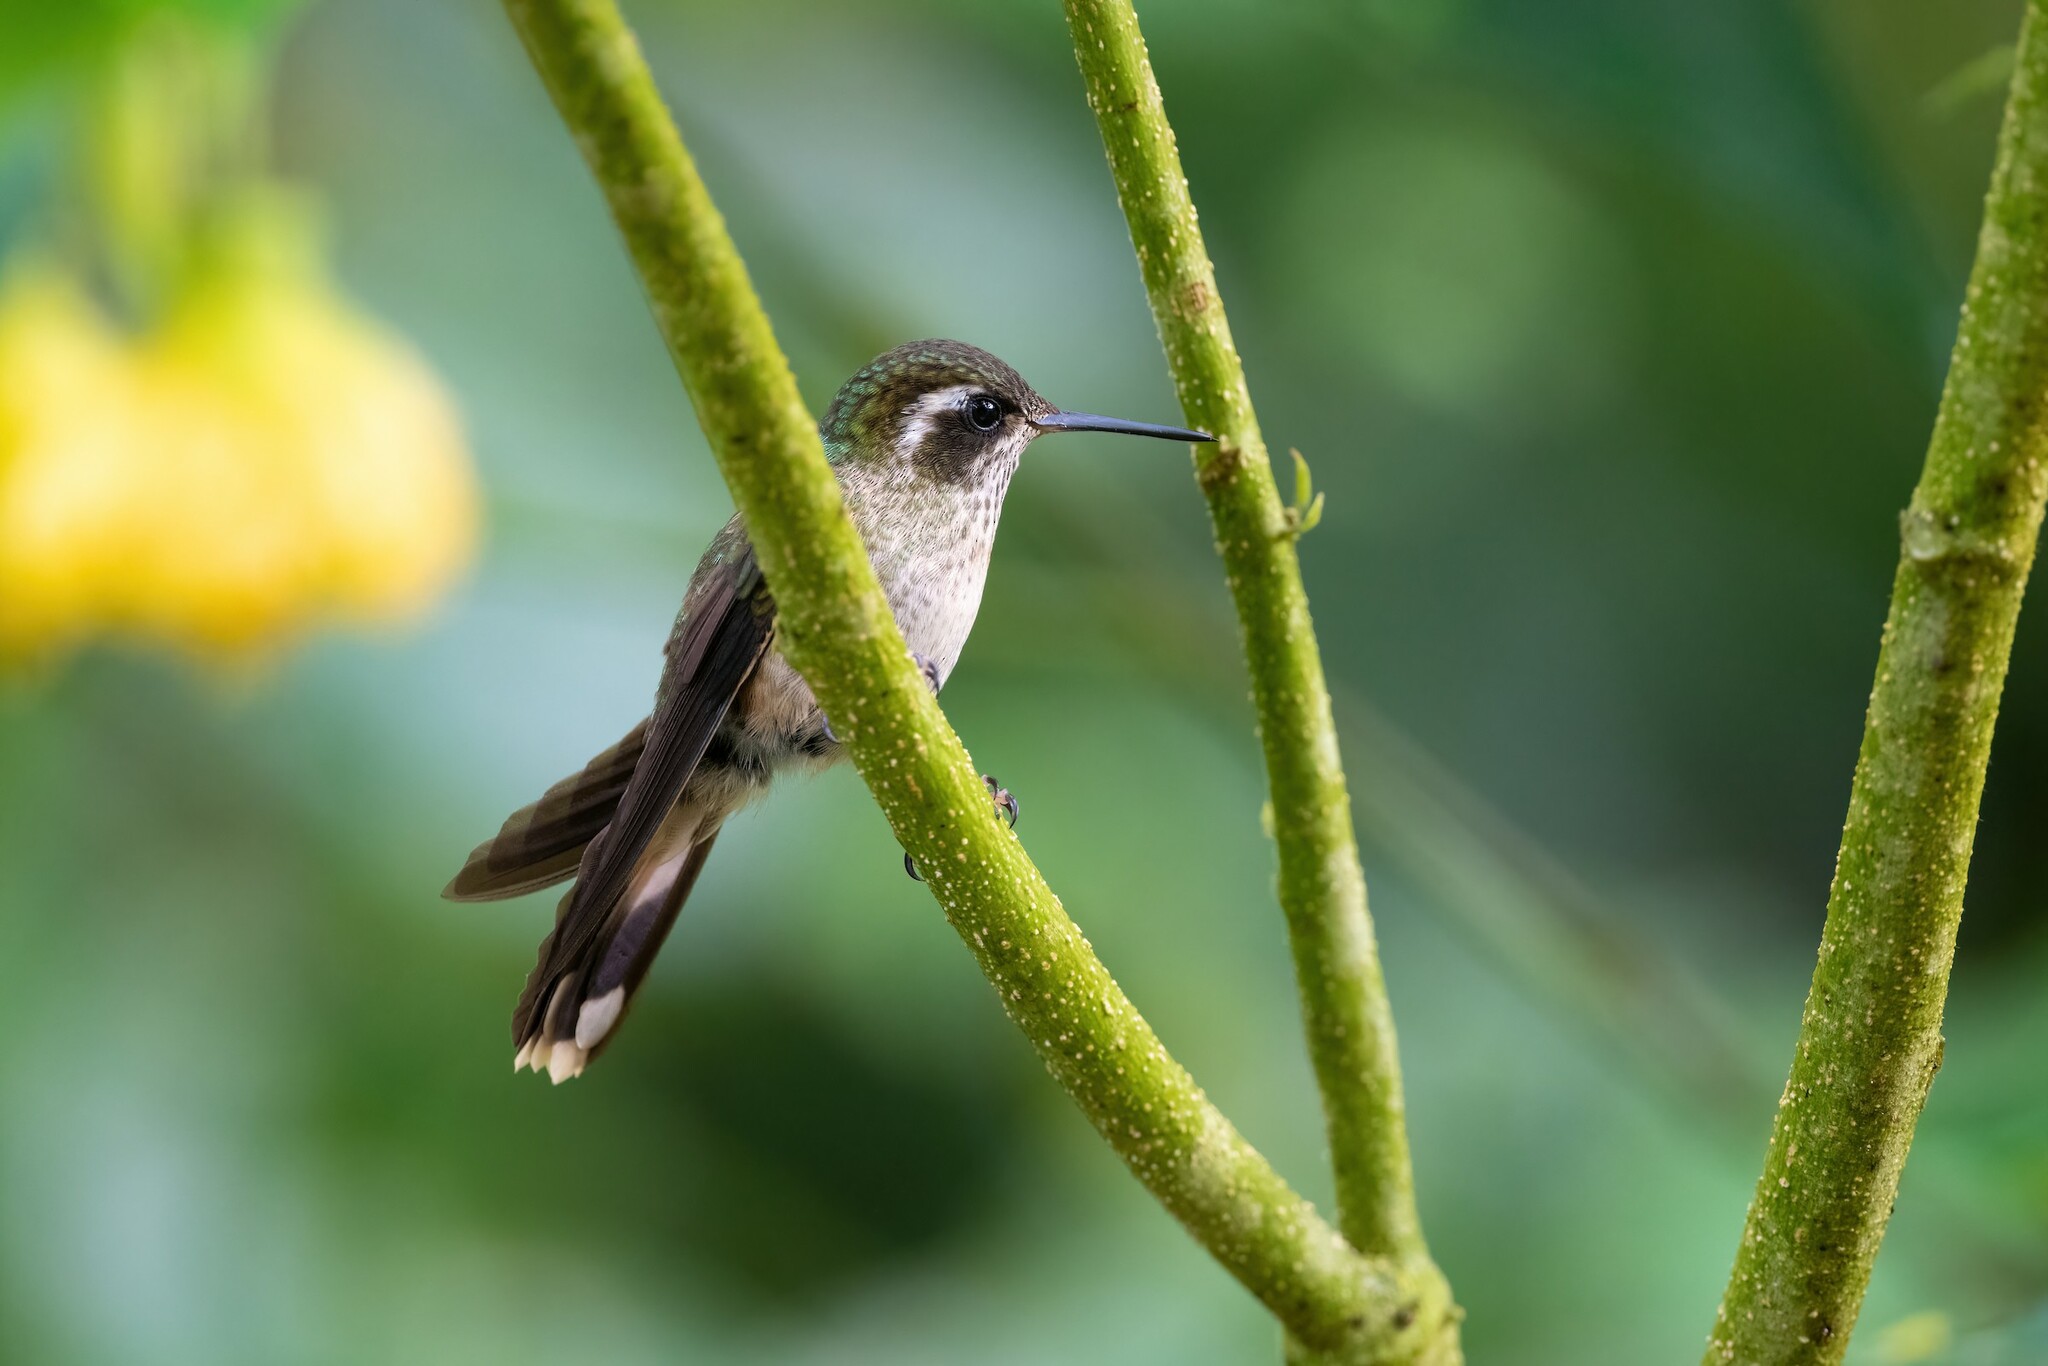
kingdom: Animalia
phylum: Chordata
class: Aves
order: Apodiformes
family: Trochilidae
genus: Adelomyia
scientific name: Adelomyia melanogenys
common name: Speckled hummingbird
